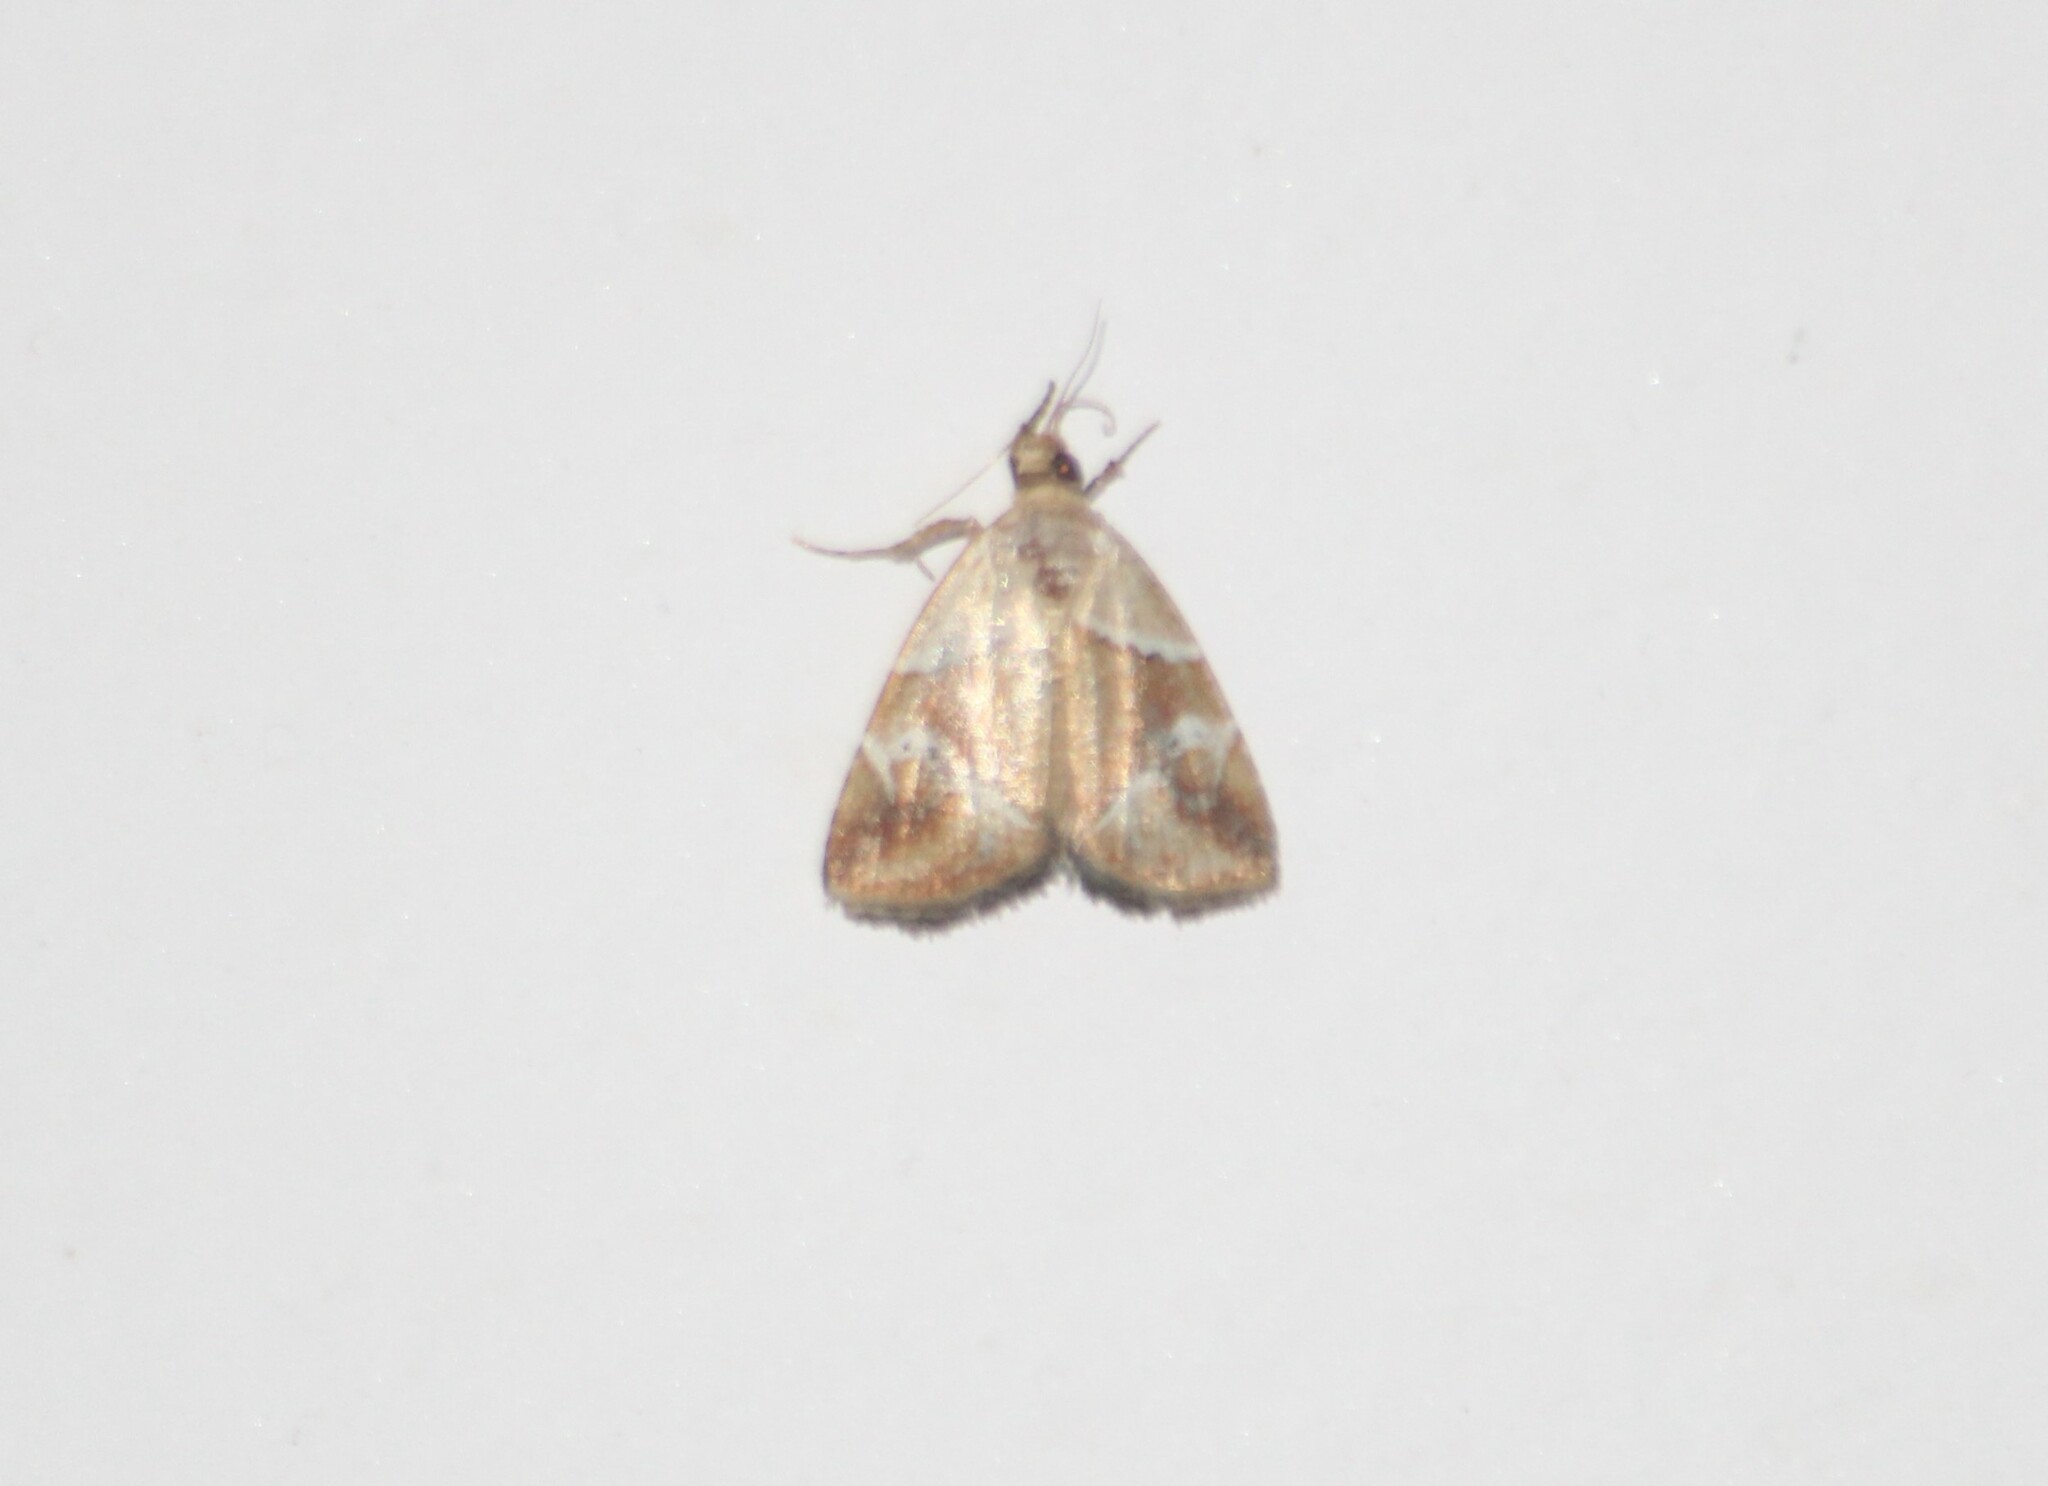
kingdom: Animalia
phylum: Arthropoda
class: Insecta
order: Lepidoptera
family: Noctuidae
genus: Maliattha
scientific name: Maliattha lativitta
